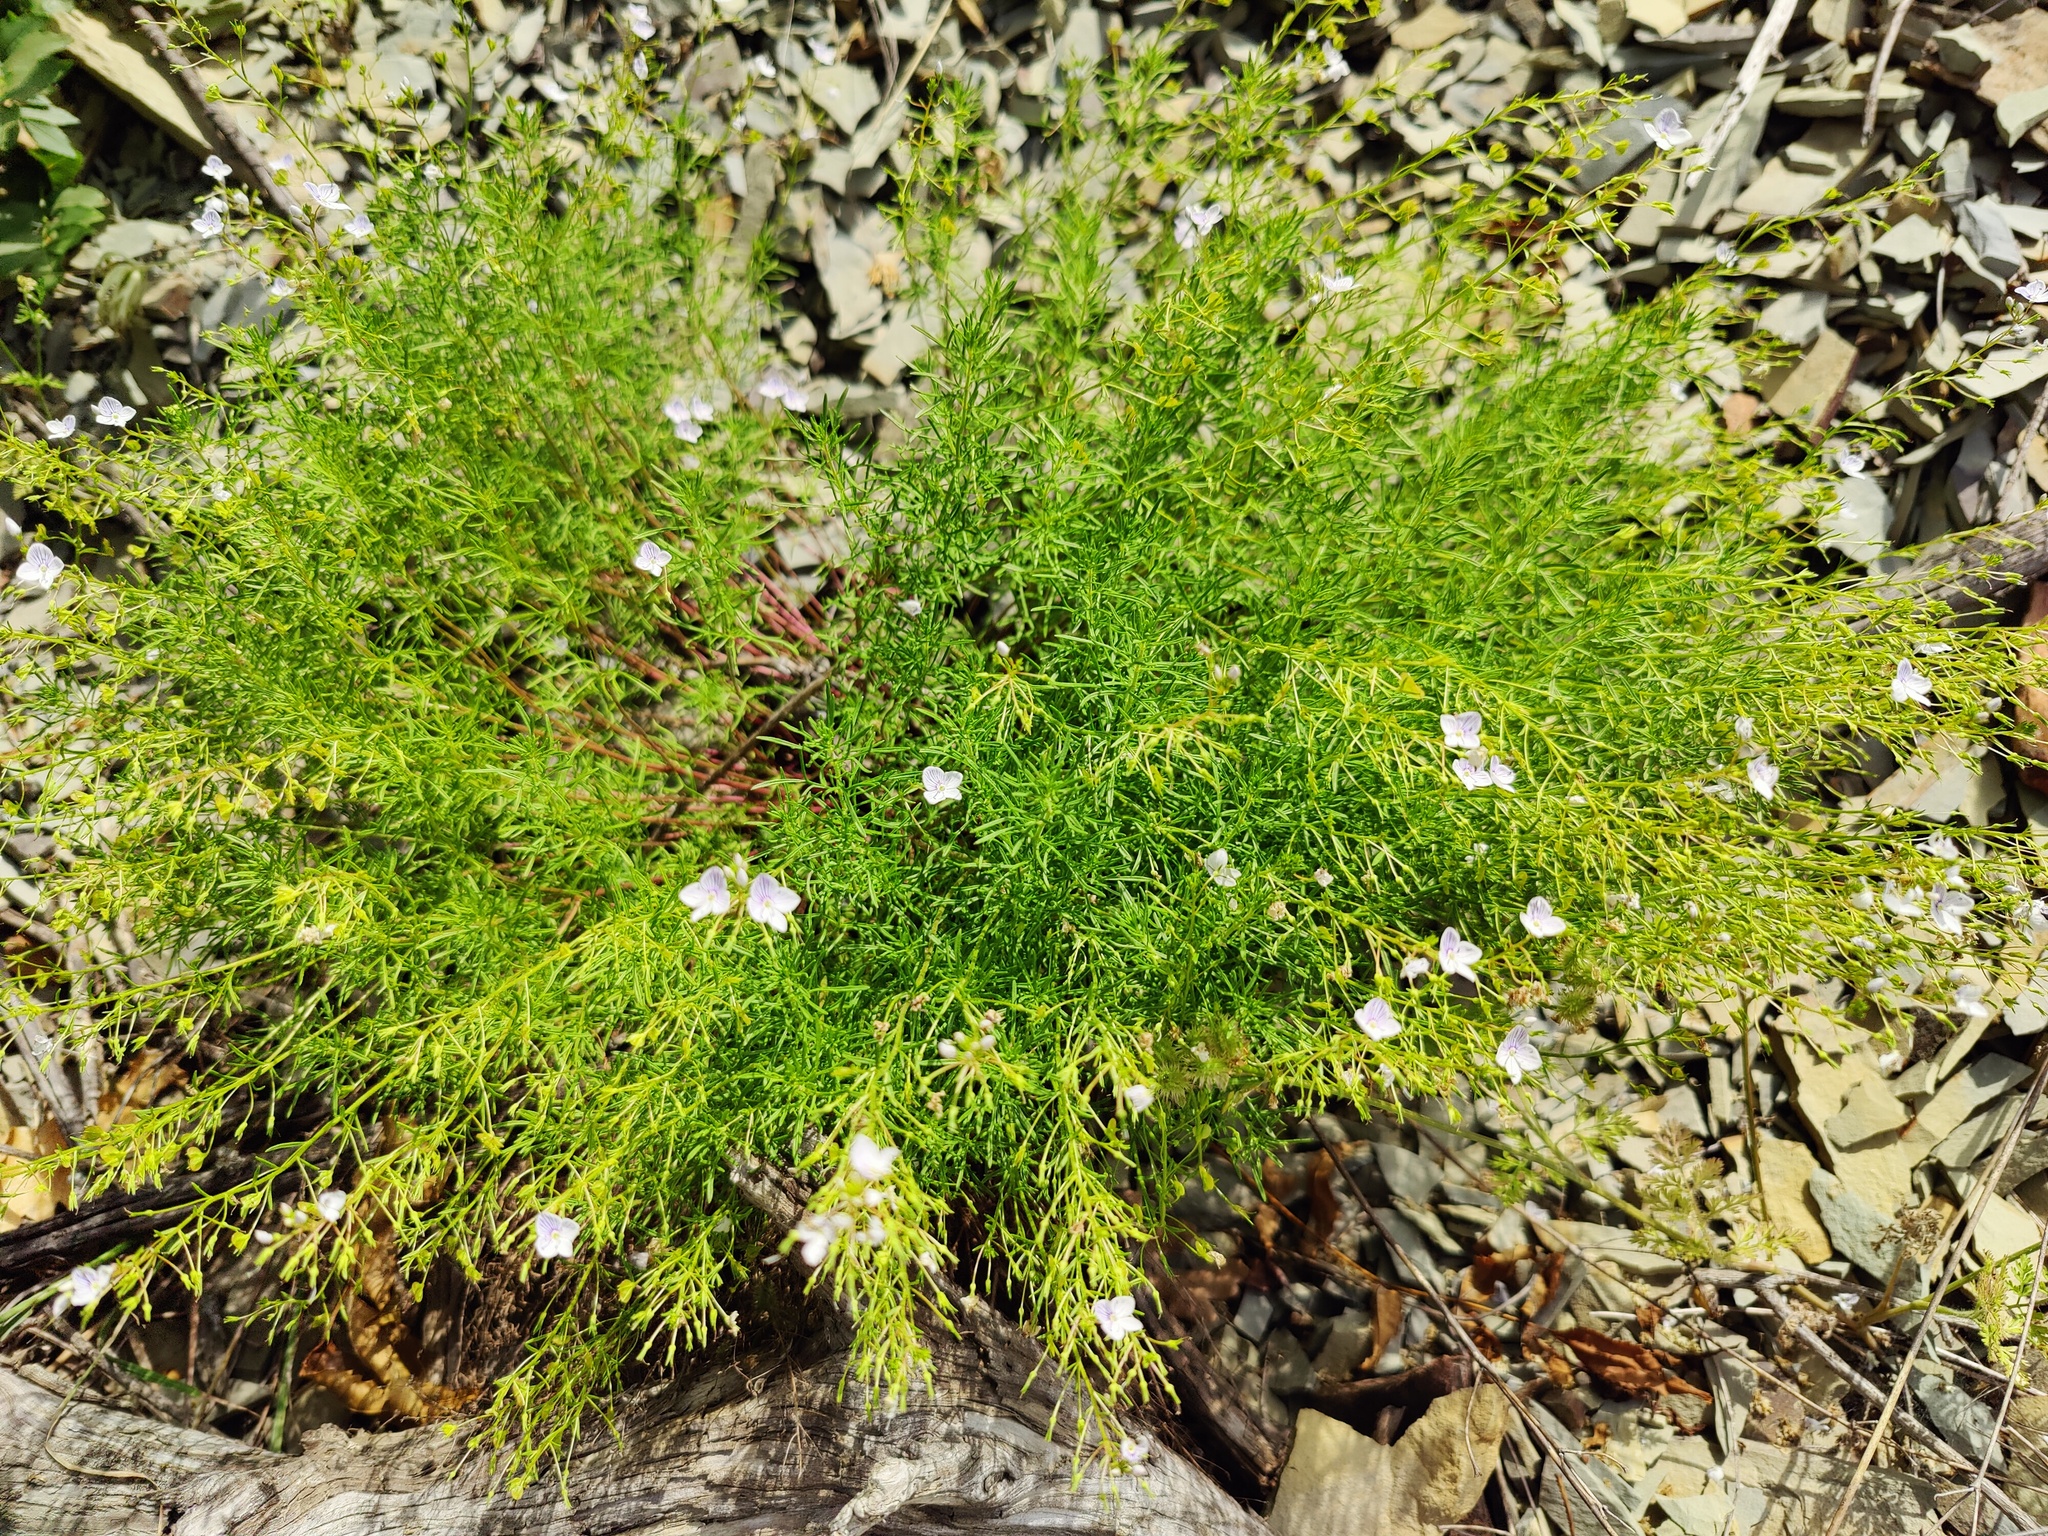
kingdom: Plantae
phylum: Tracheophyta
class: Magnoliopsida
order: Lamiales
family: Plantaginaceae
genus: Veronica
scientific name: Veronica filifolia
